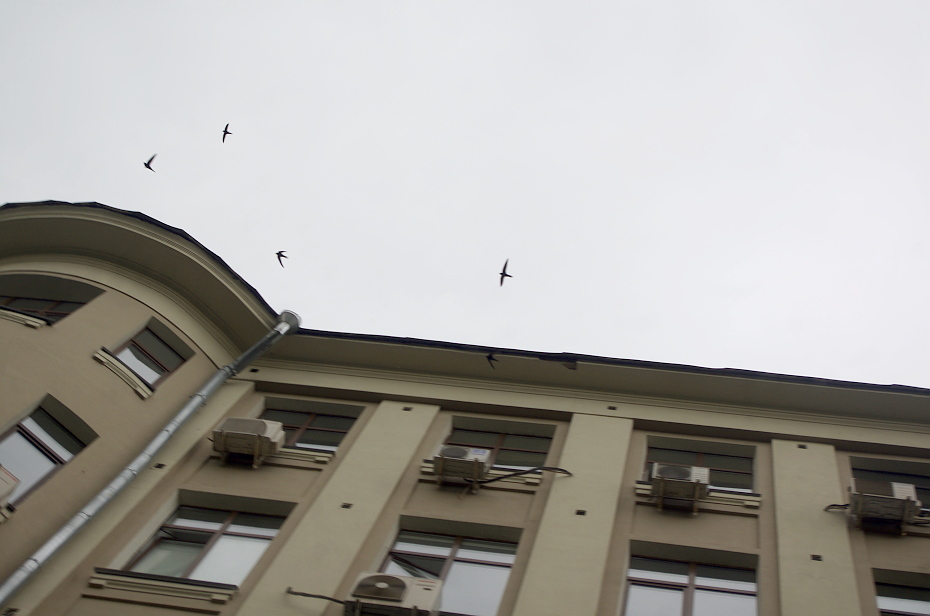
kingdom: Animalia
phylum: Chordata
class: Aves
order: Apodiformes
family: Apodidae
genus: Apus
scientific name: Apus apus
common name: Common swift
